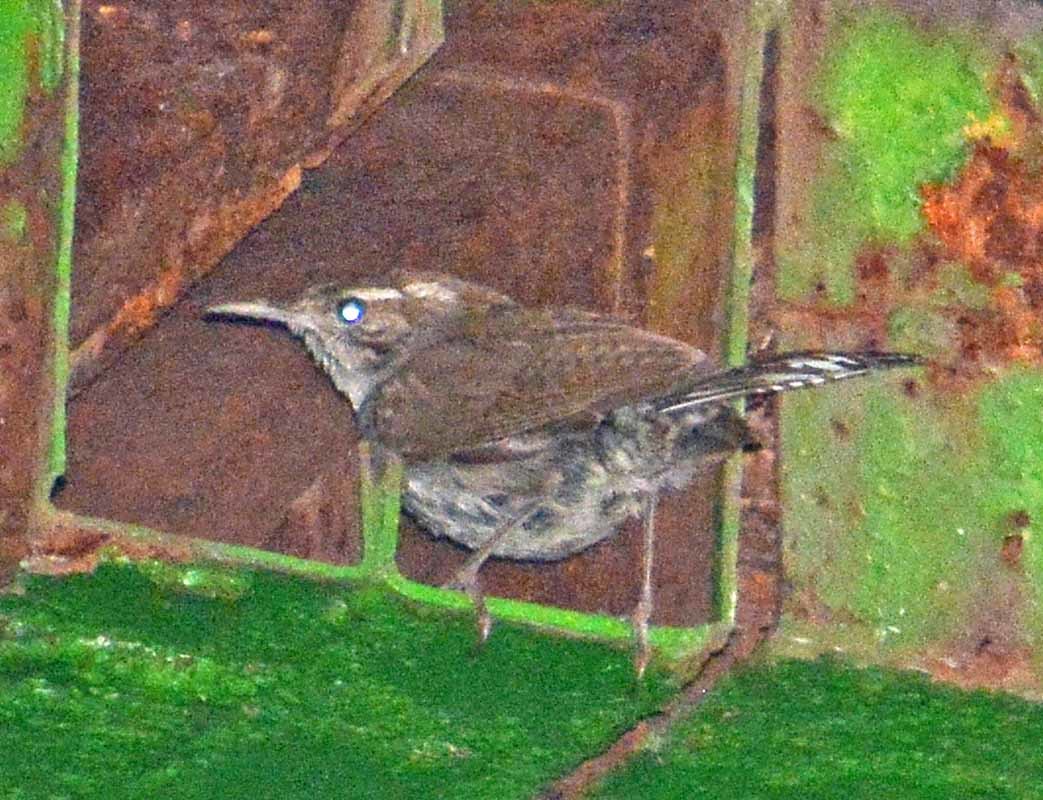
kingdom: Animalia
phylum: Chordata
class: Aves
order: Passeriformes
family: Troglodytidae
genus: Thryomanes
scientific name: Thryomanes bewickii
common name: Bewick's wren
